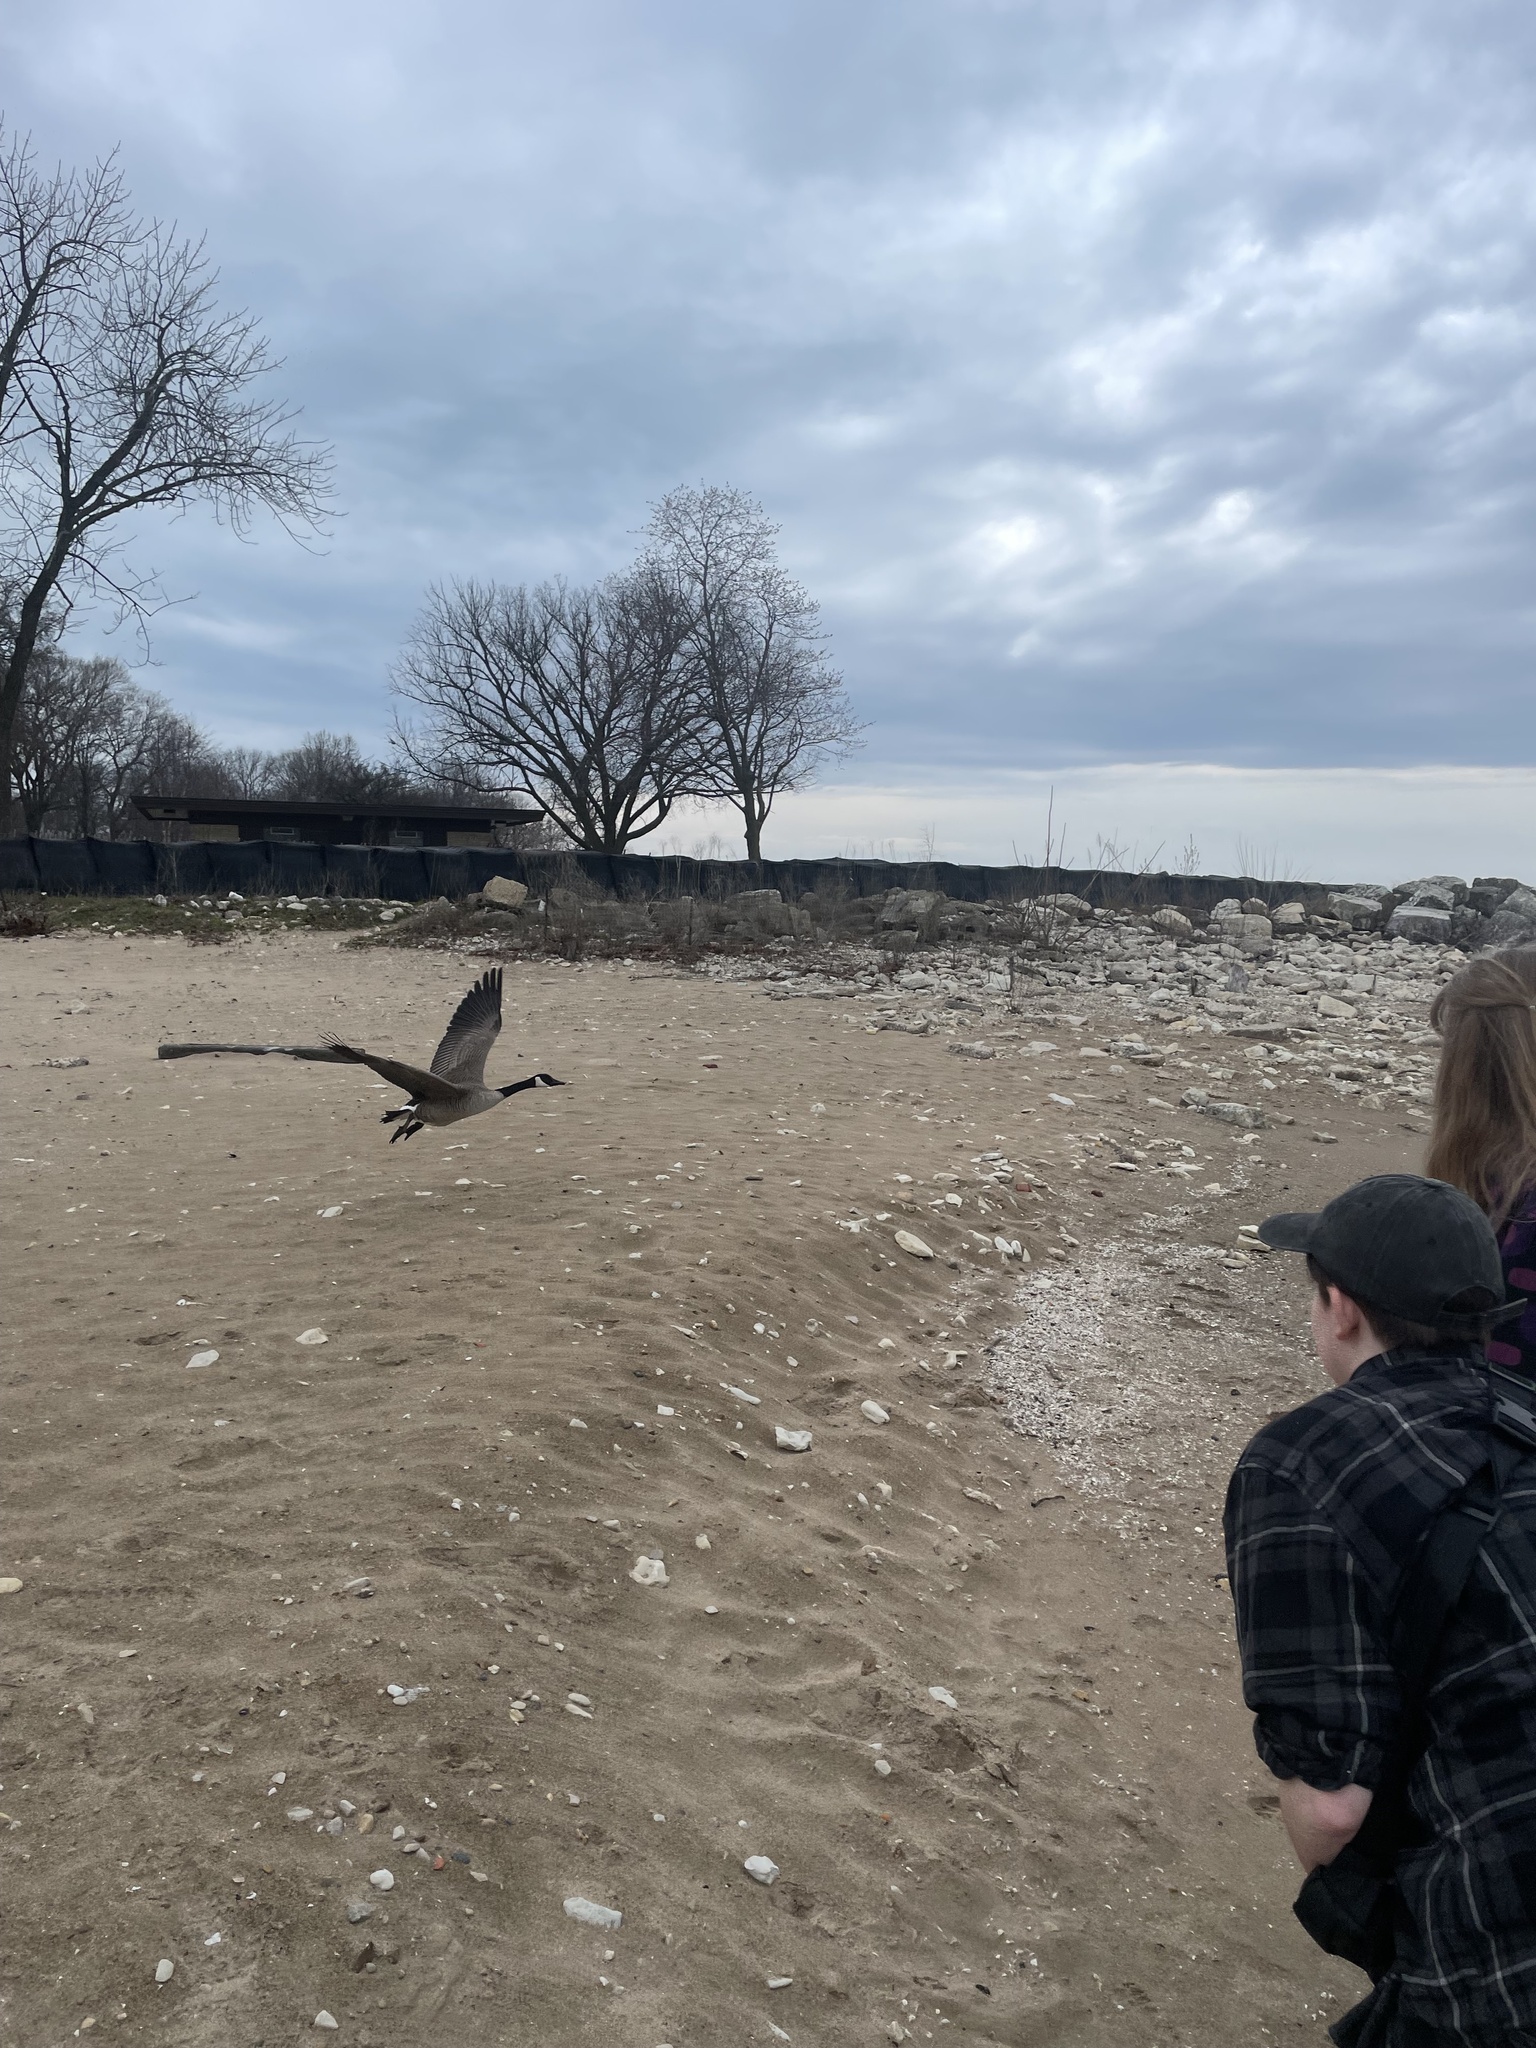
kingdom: Animalia
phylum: Chordata
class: Aves
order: Anseriformes
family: Anatidae
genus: Branta
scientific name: Branta canadensis
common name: Canada goose
